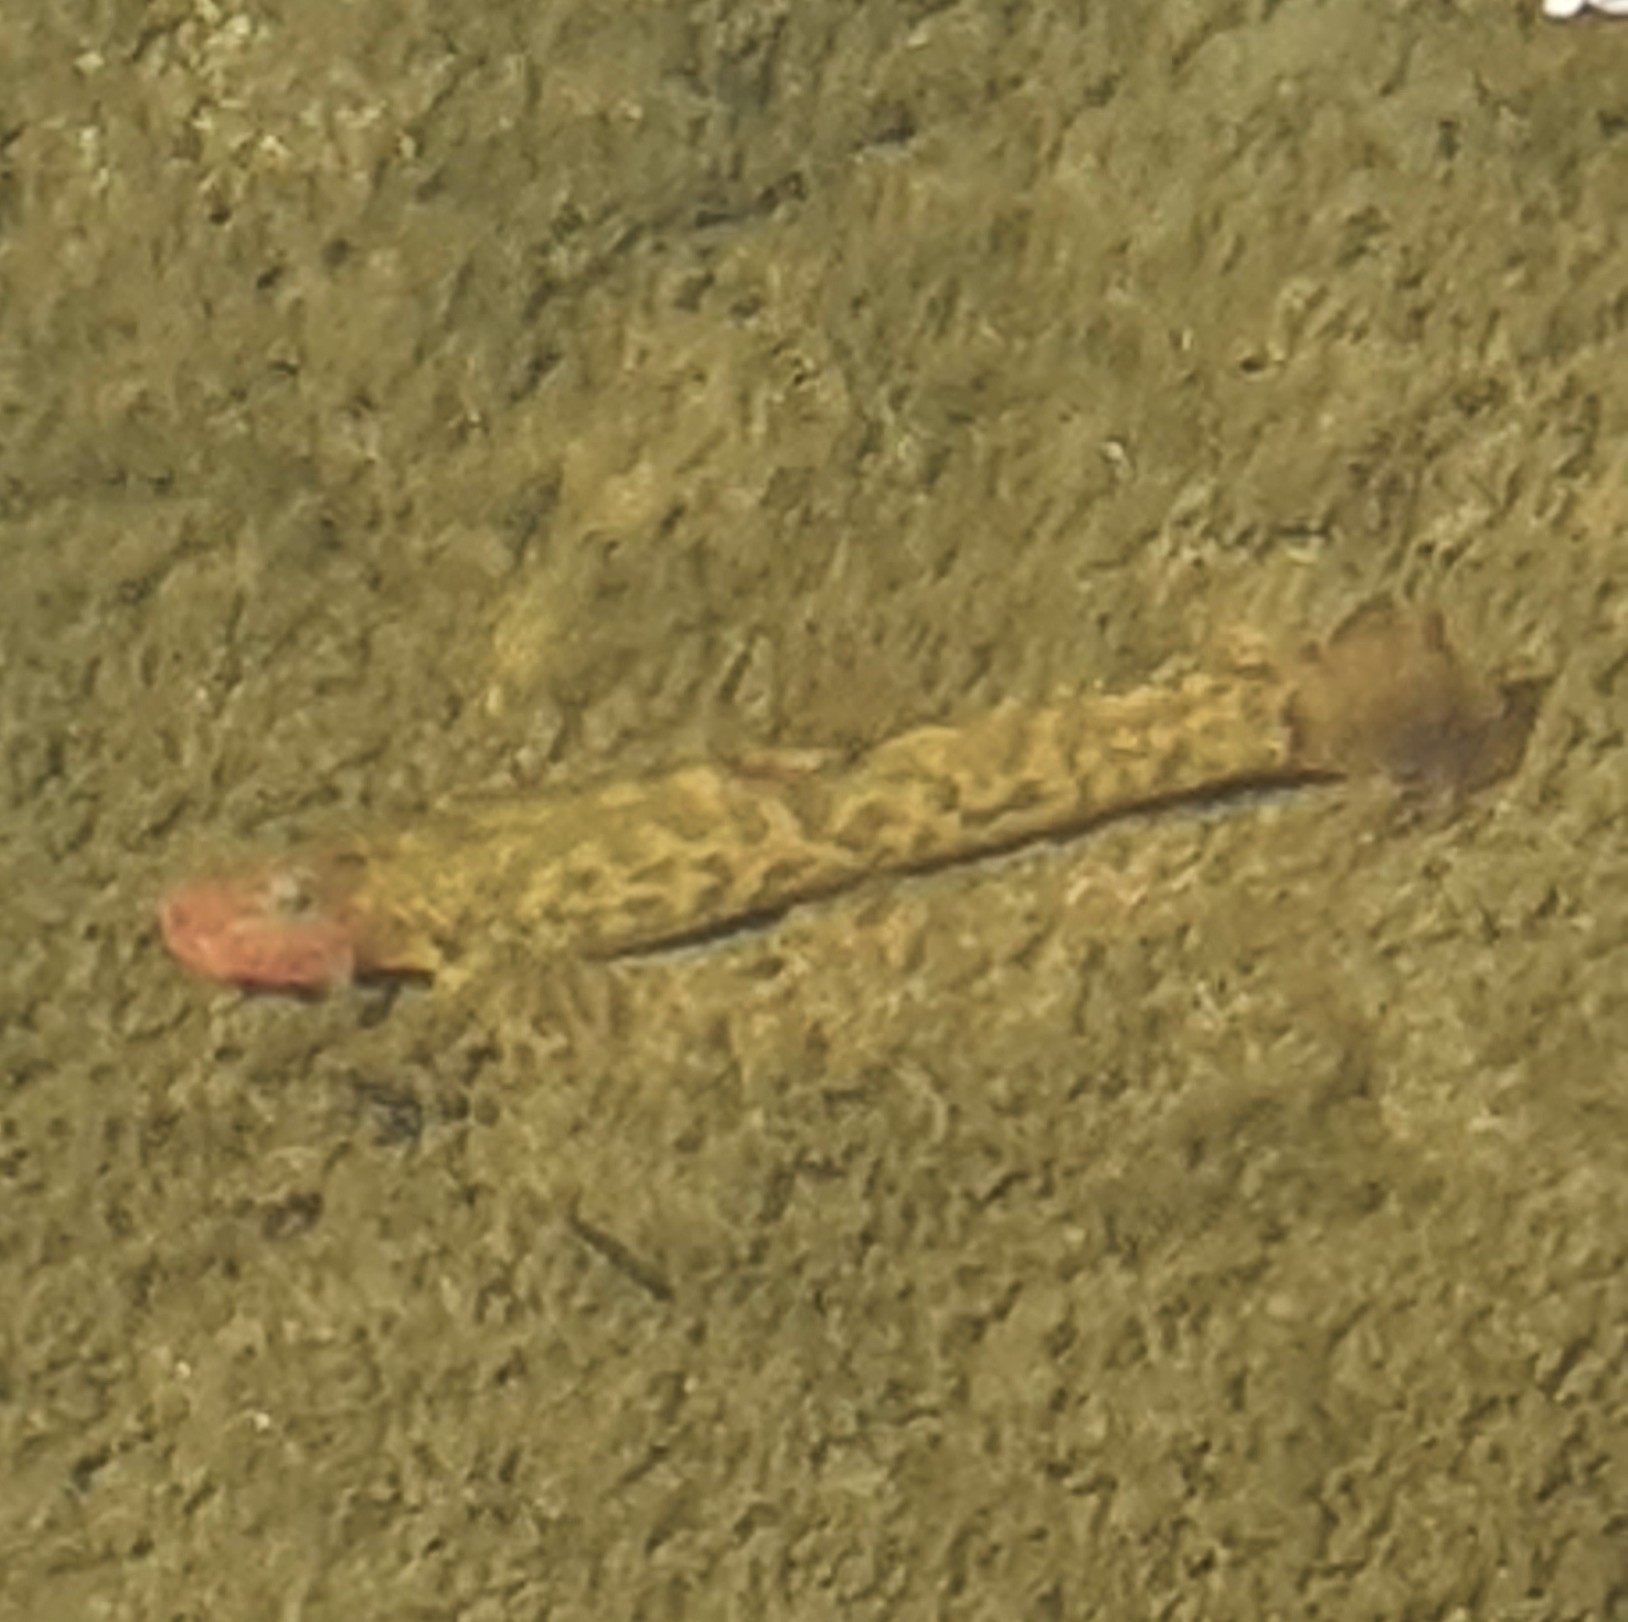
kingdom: Animalia
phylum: Chordata
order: Cypriniformes
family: Nemacheilidae
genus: Barbatula
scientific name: Barbatula barbatula
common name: Stone loach
